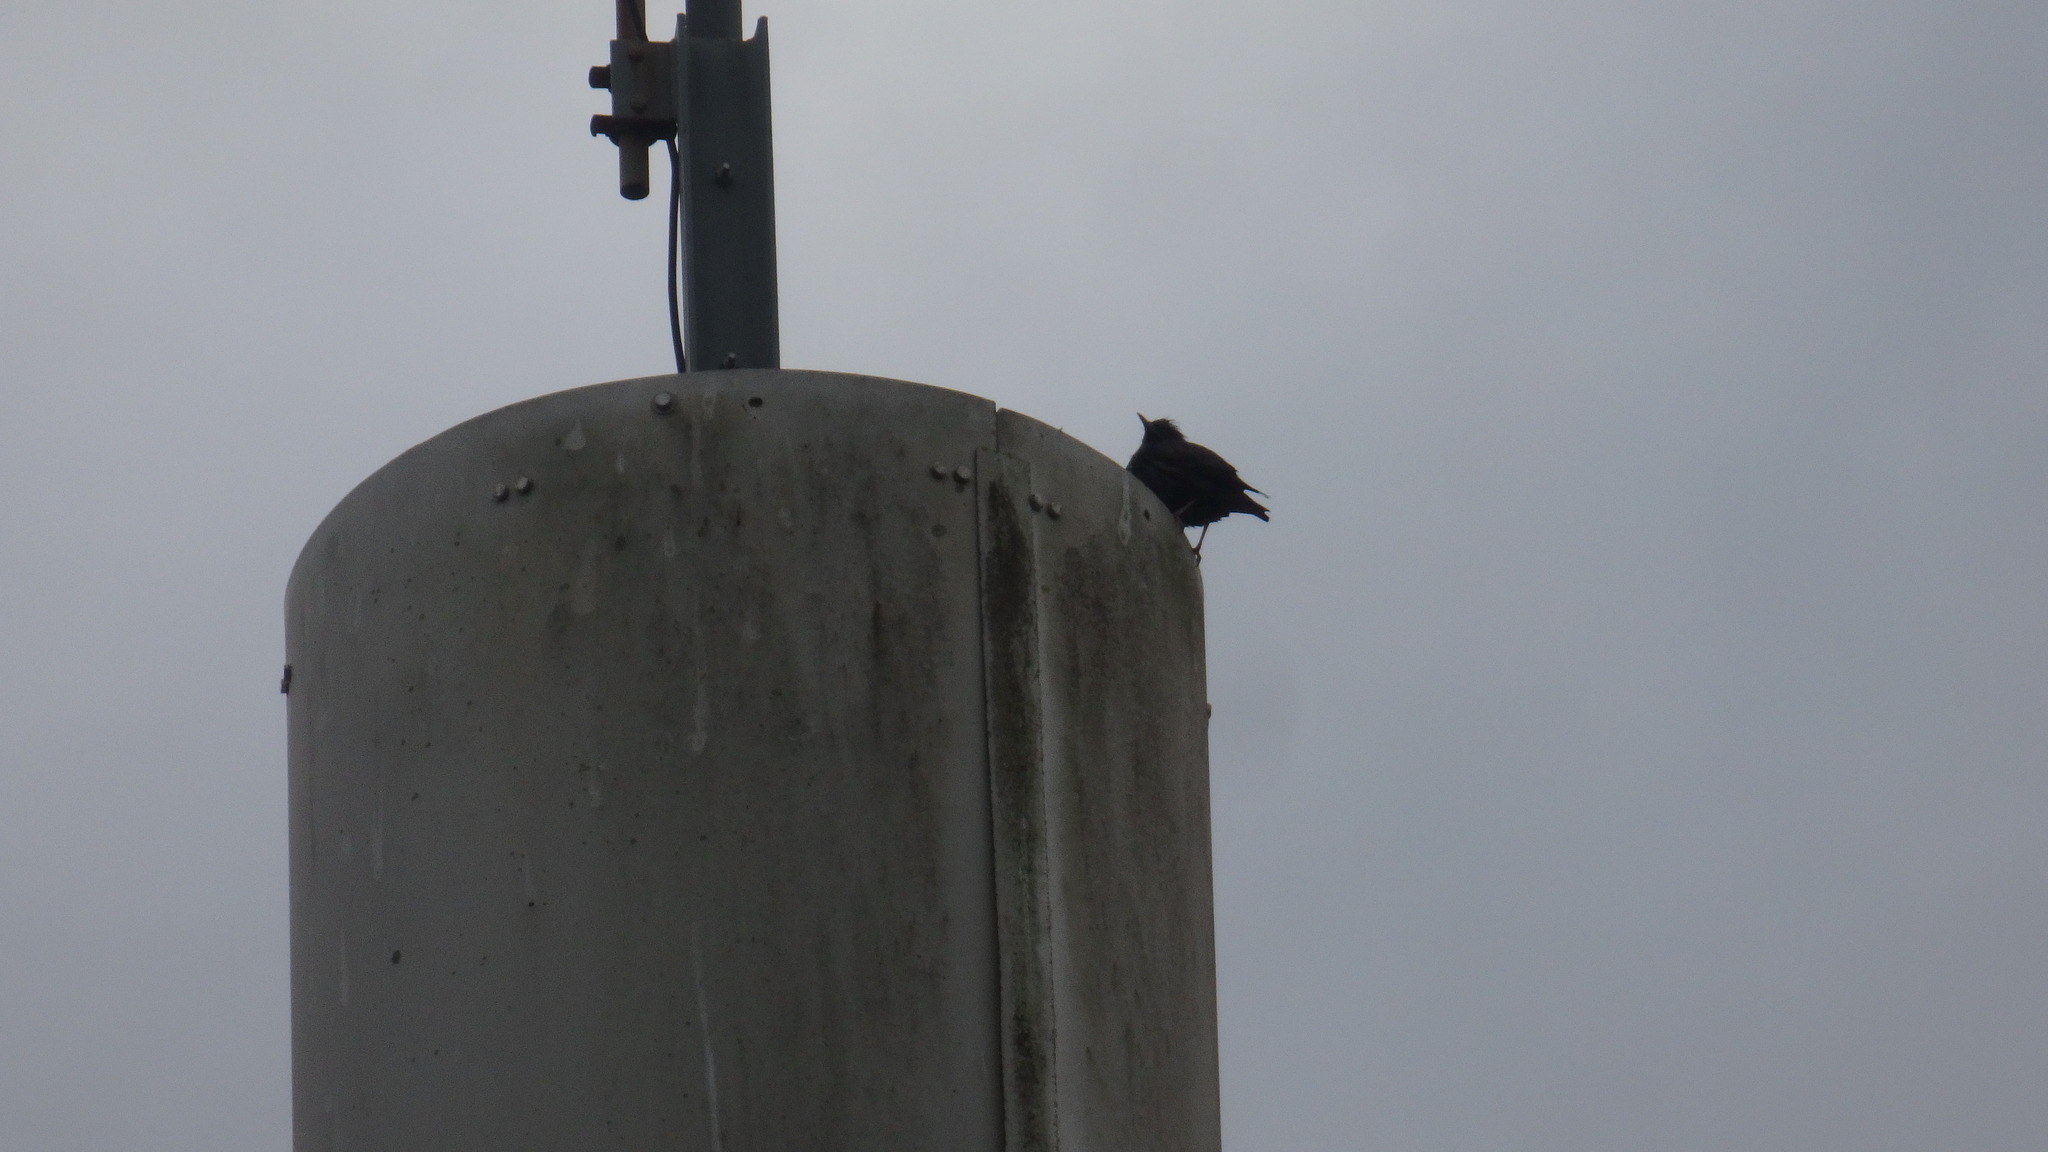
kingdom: Animalia
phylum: Chordata
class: Aves
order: Passeriformes
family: Sturnidae
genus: Sturnus
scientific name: Sturnus unicolor
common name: Spotless starling
